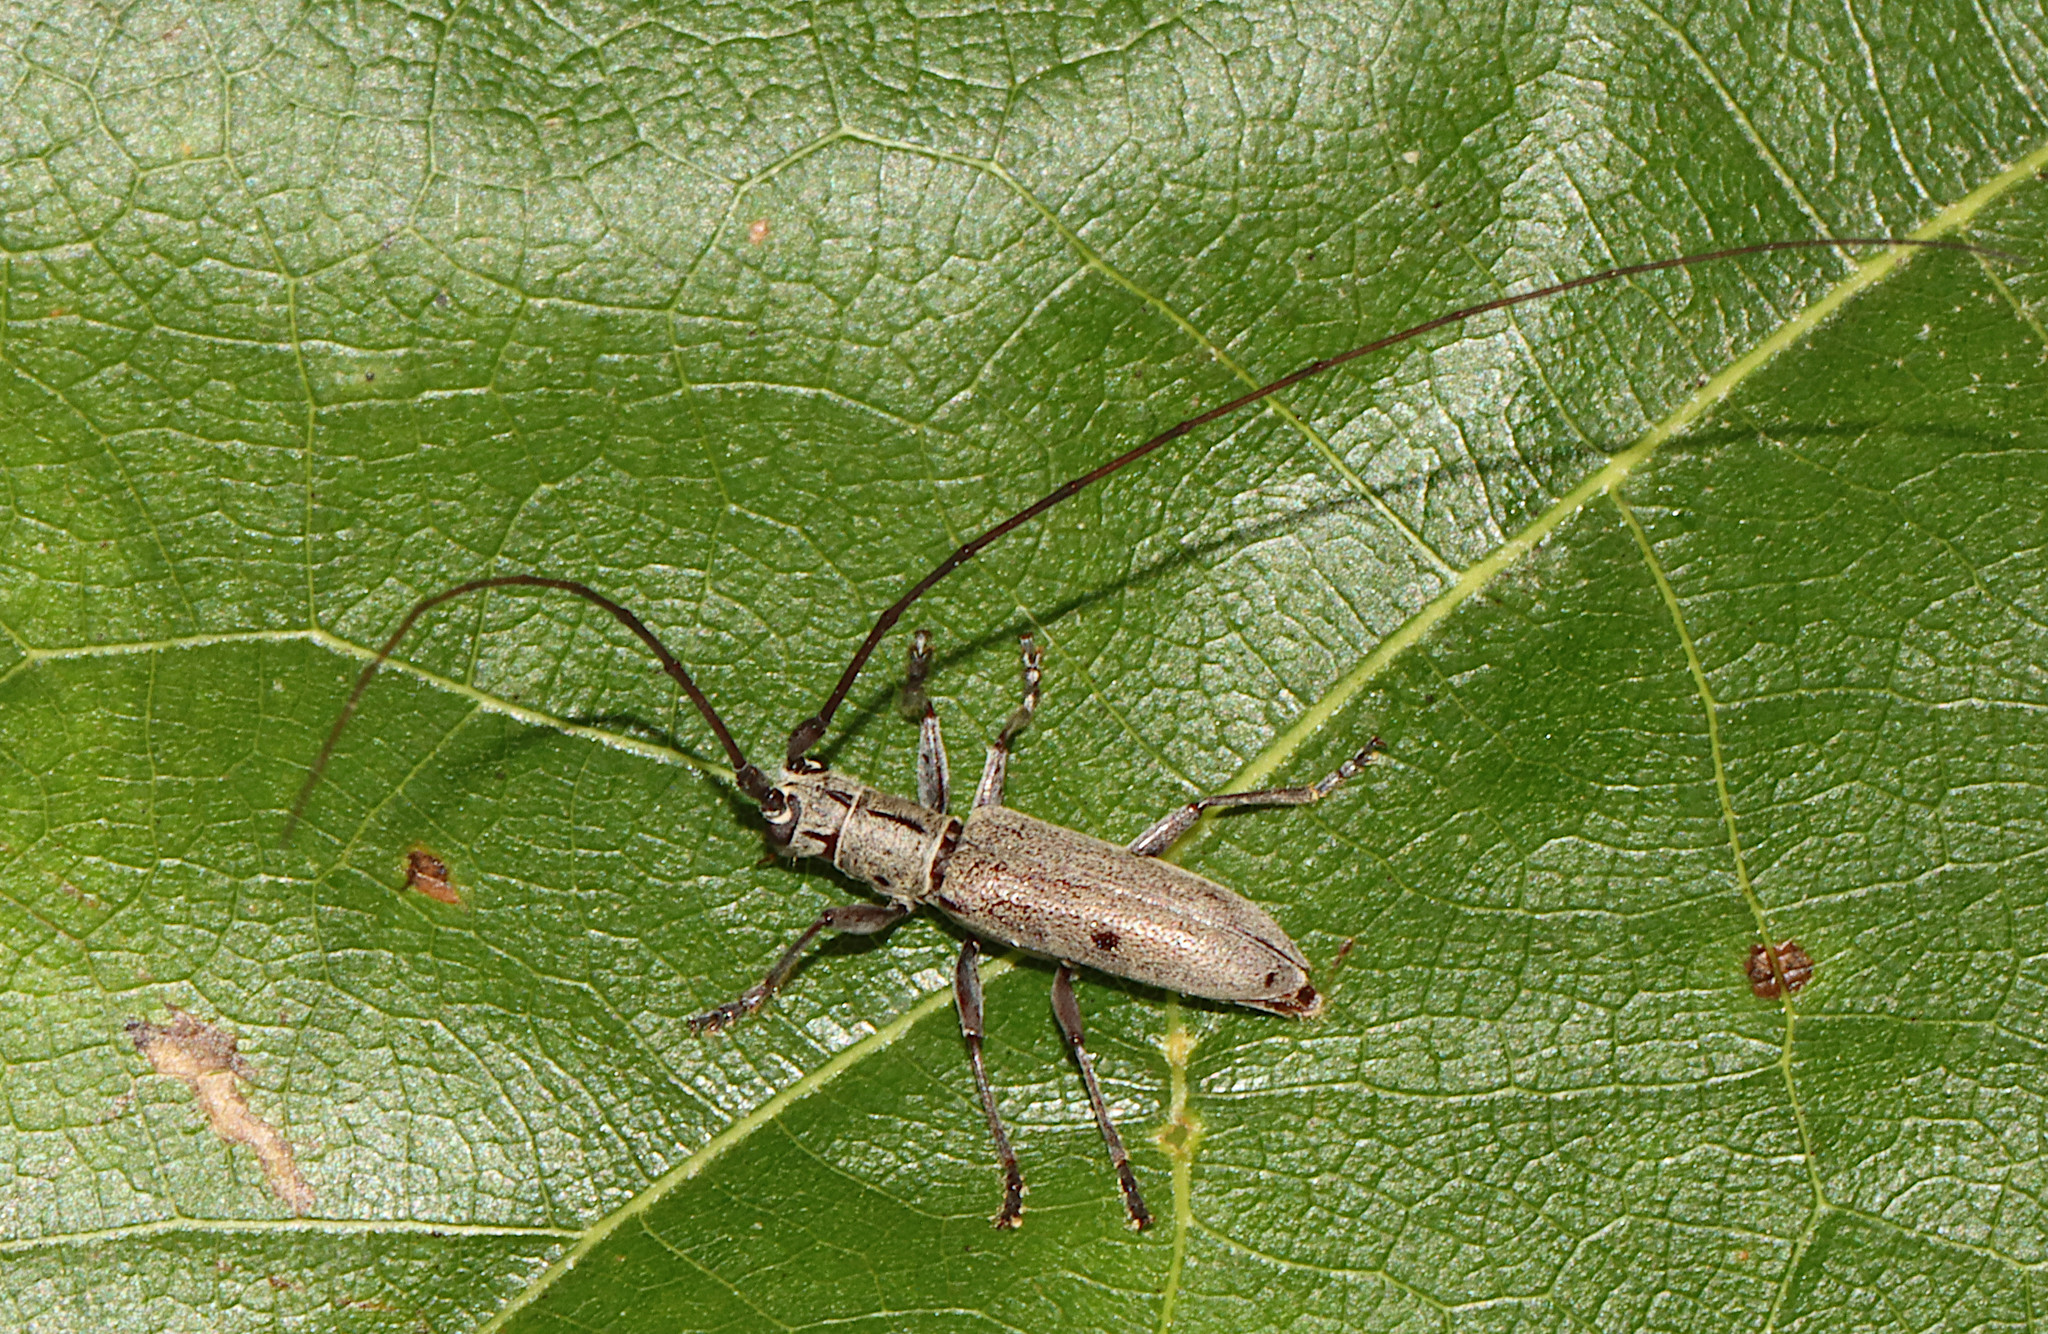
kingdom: Animalia
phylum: Arthropoda
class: Insecta
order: Coleoptera
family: Cerambycidae
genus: Dorcaschema
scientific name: Dorcaschema cinereum
